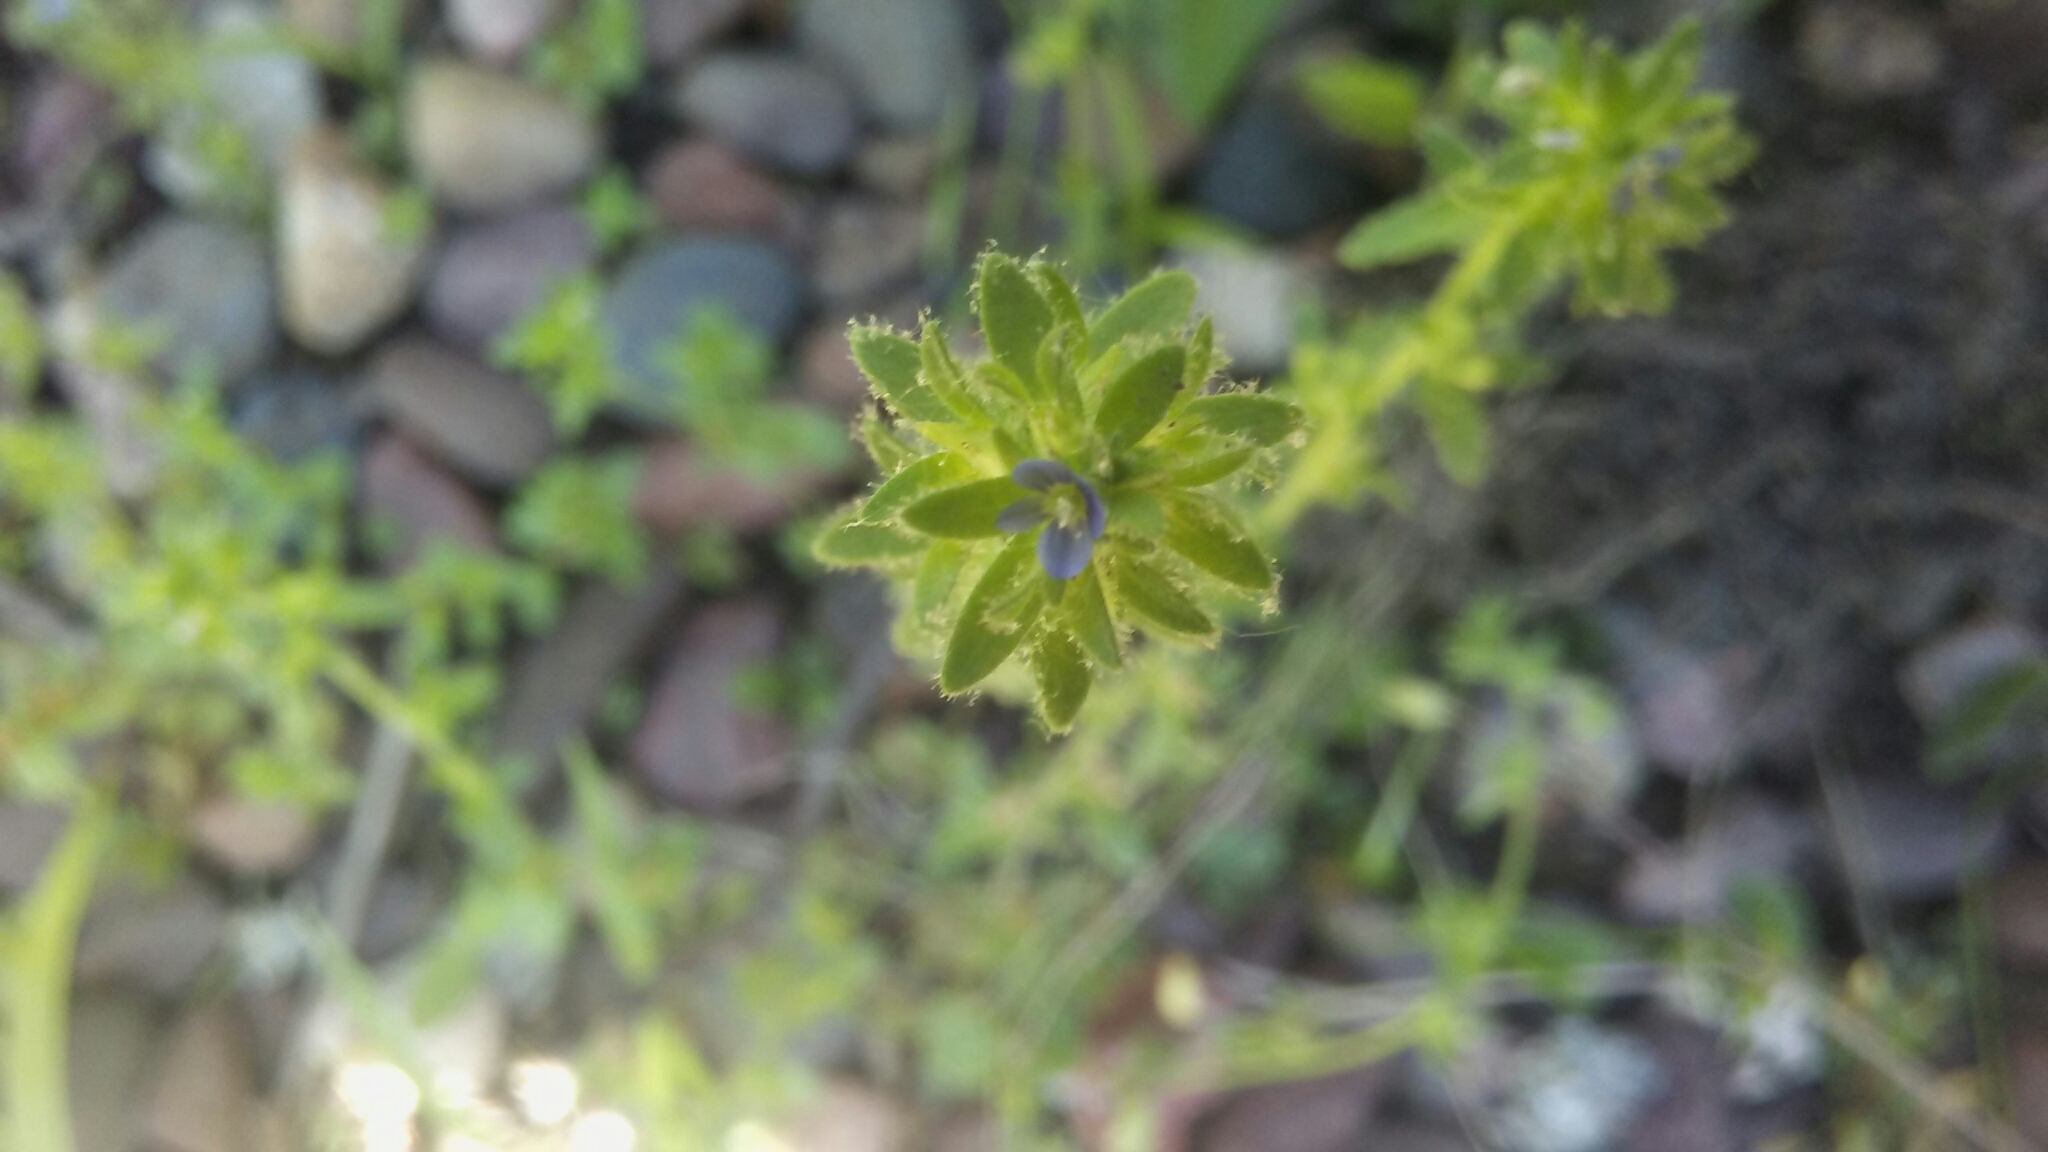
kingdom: Plantae
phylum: Tracheophyta
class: Magnoliopsida
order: Lamiales
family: Plantaginaceae
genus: Veronica
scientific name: Veronica arvensis
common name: Corn speedwell
